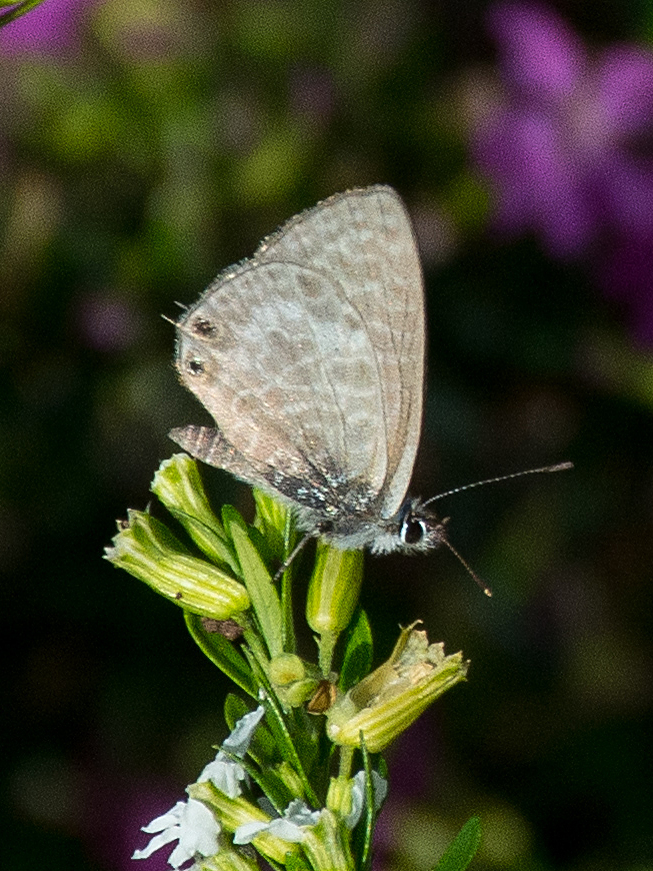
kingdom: Animalia
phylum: Arthropoda
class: Insecta
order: Lepidoptera
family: Lycaenidae
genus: Leptotes
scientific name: Leptotes pirithous
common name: Lang's short-tailed blue
